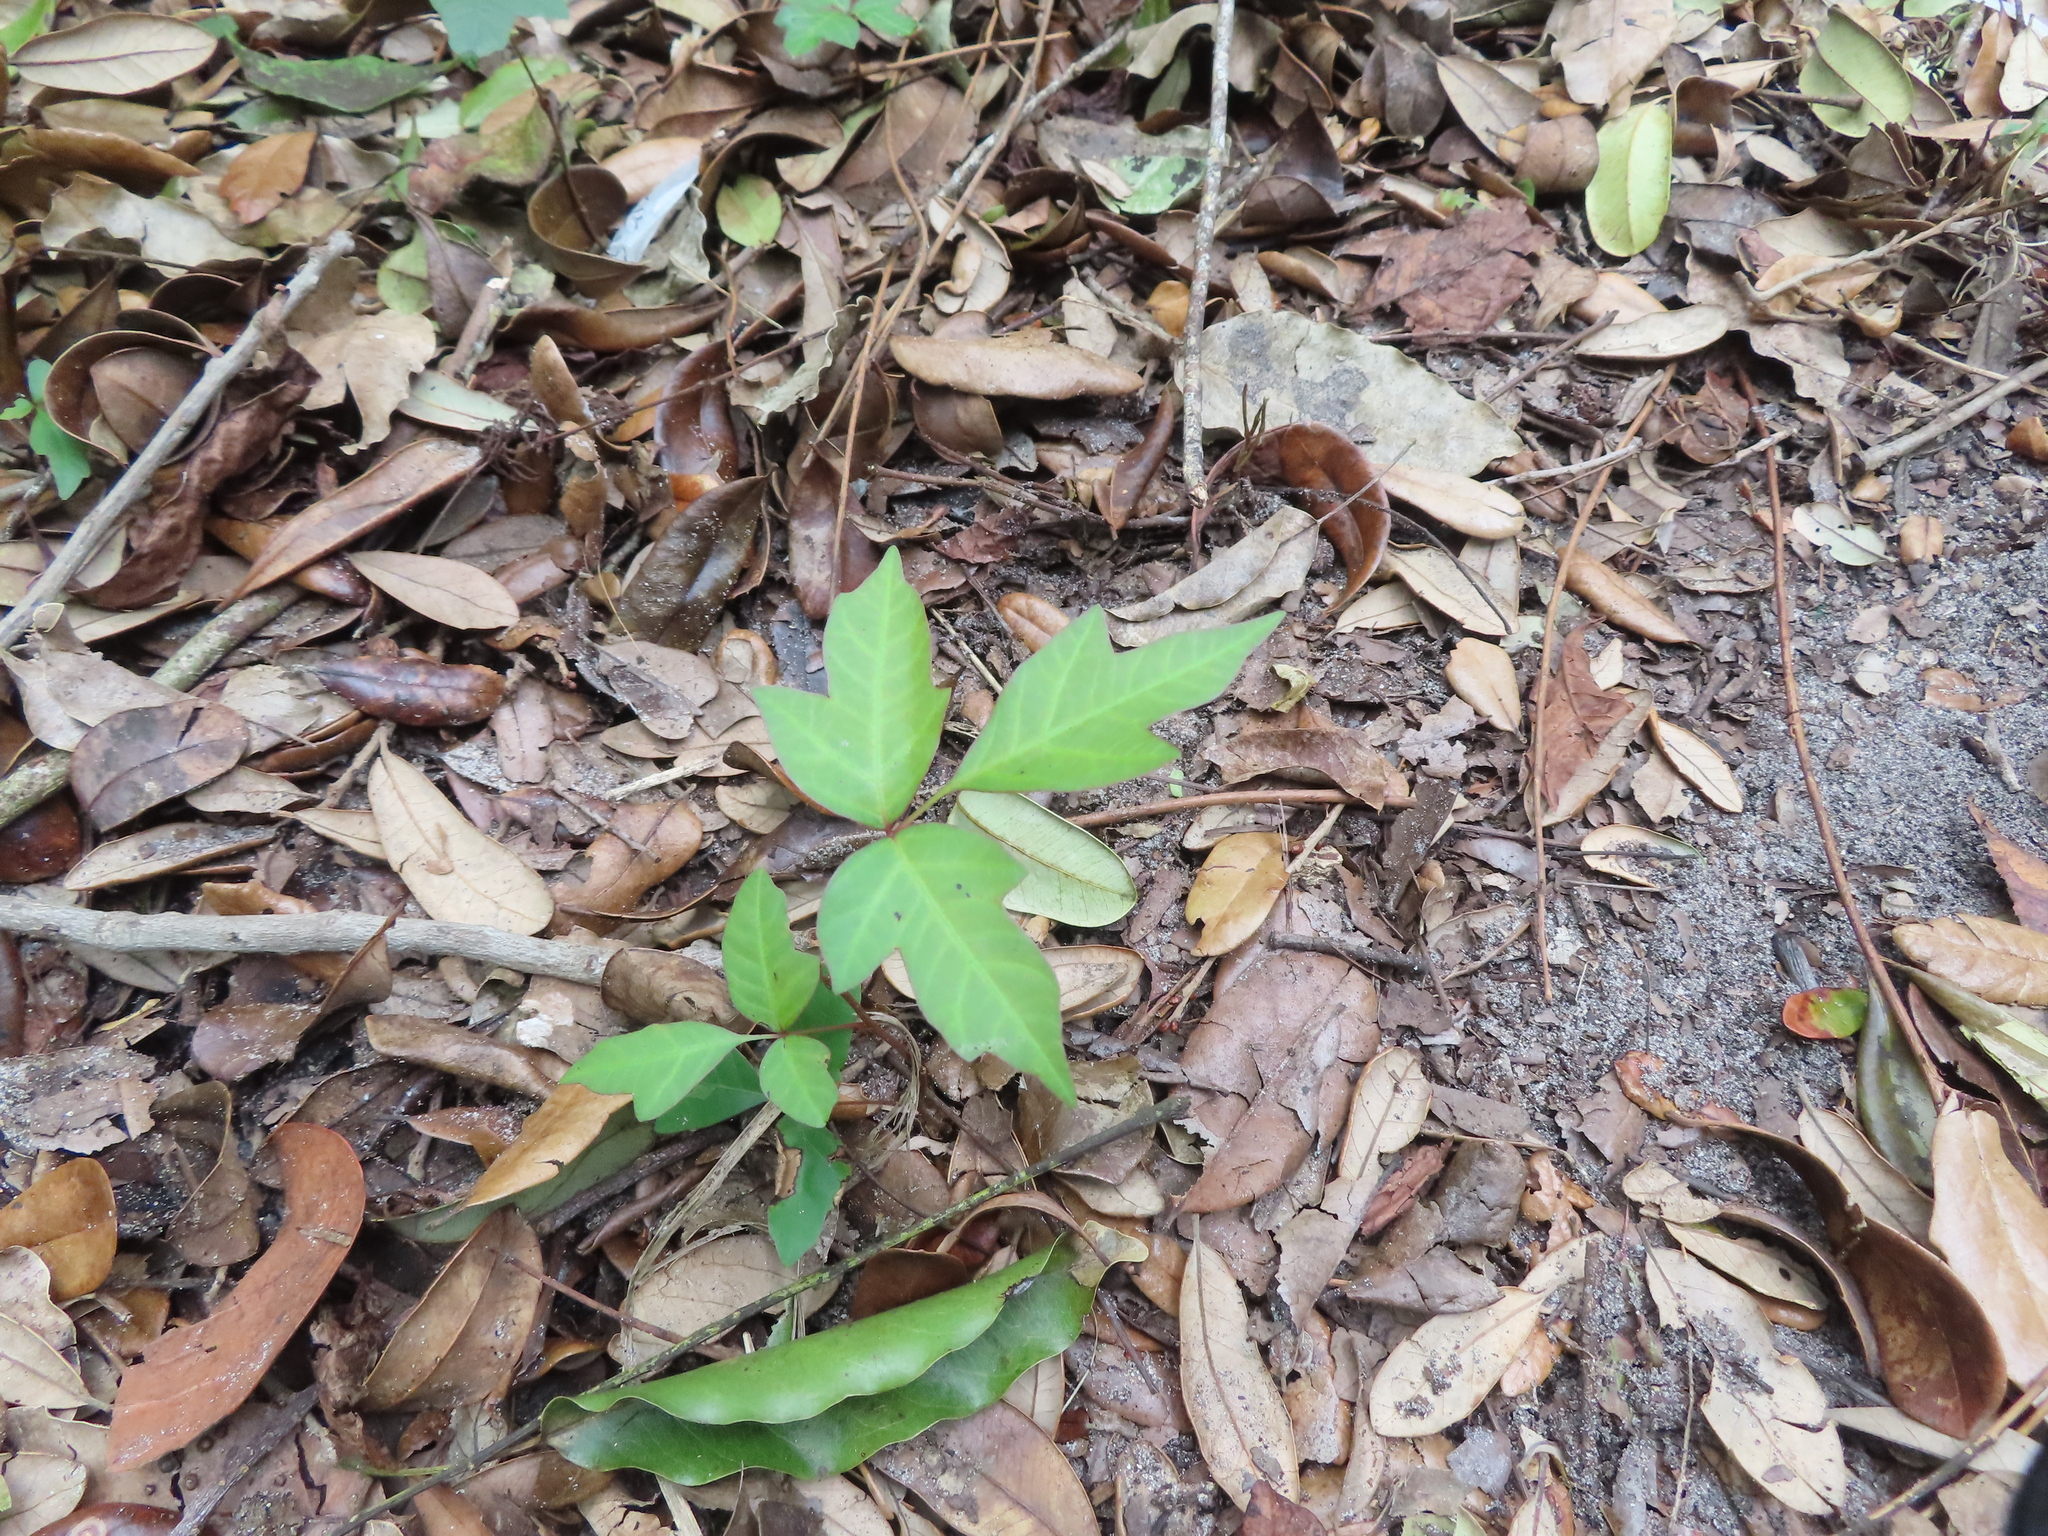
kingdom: Plantae
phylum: Tracheophyta
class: Magnoliopsida
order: Sapindales
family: Anacardiaceae
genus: Toxicodendron
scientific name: Toxicodendron radicans
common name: Poison ivy
